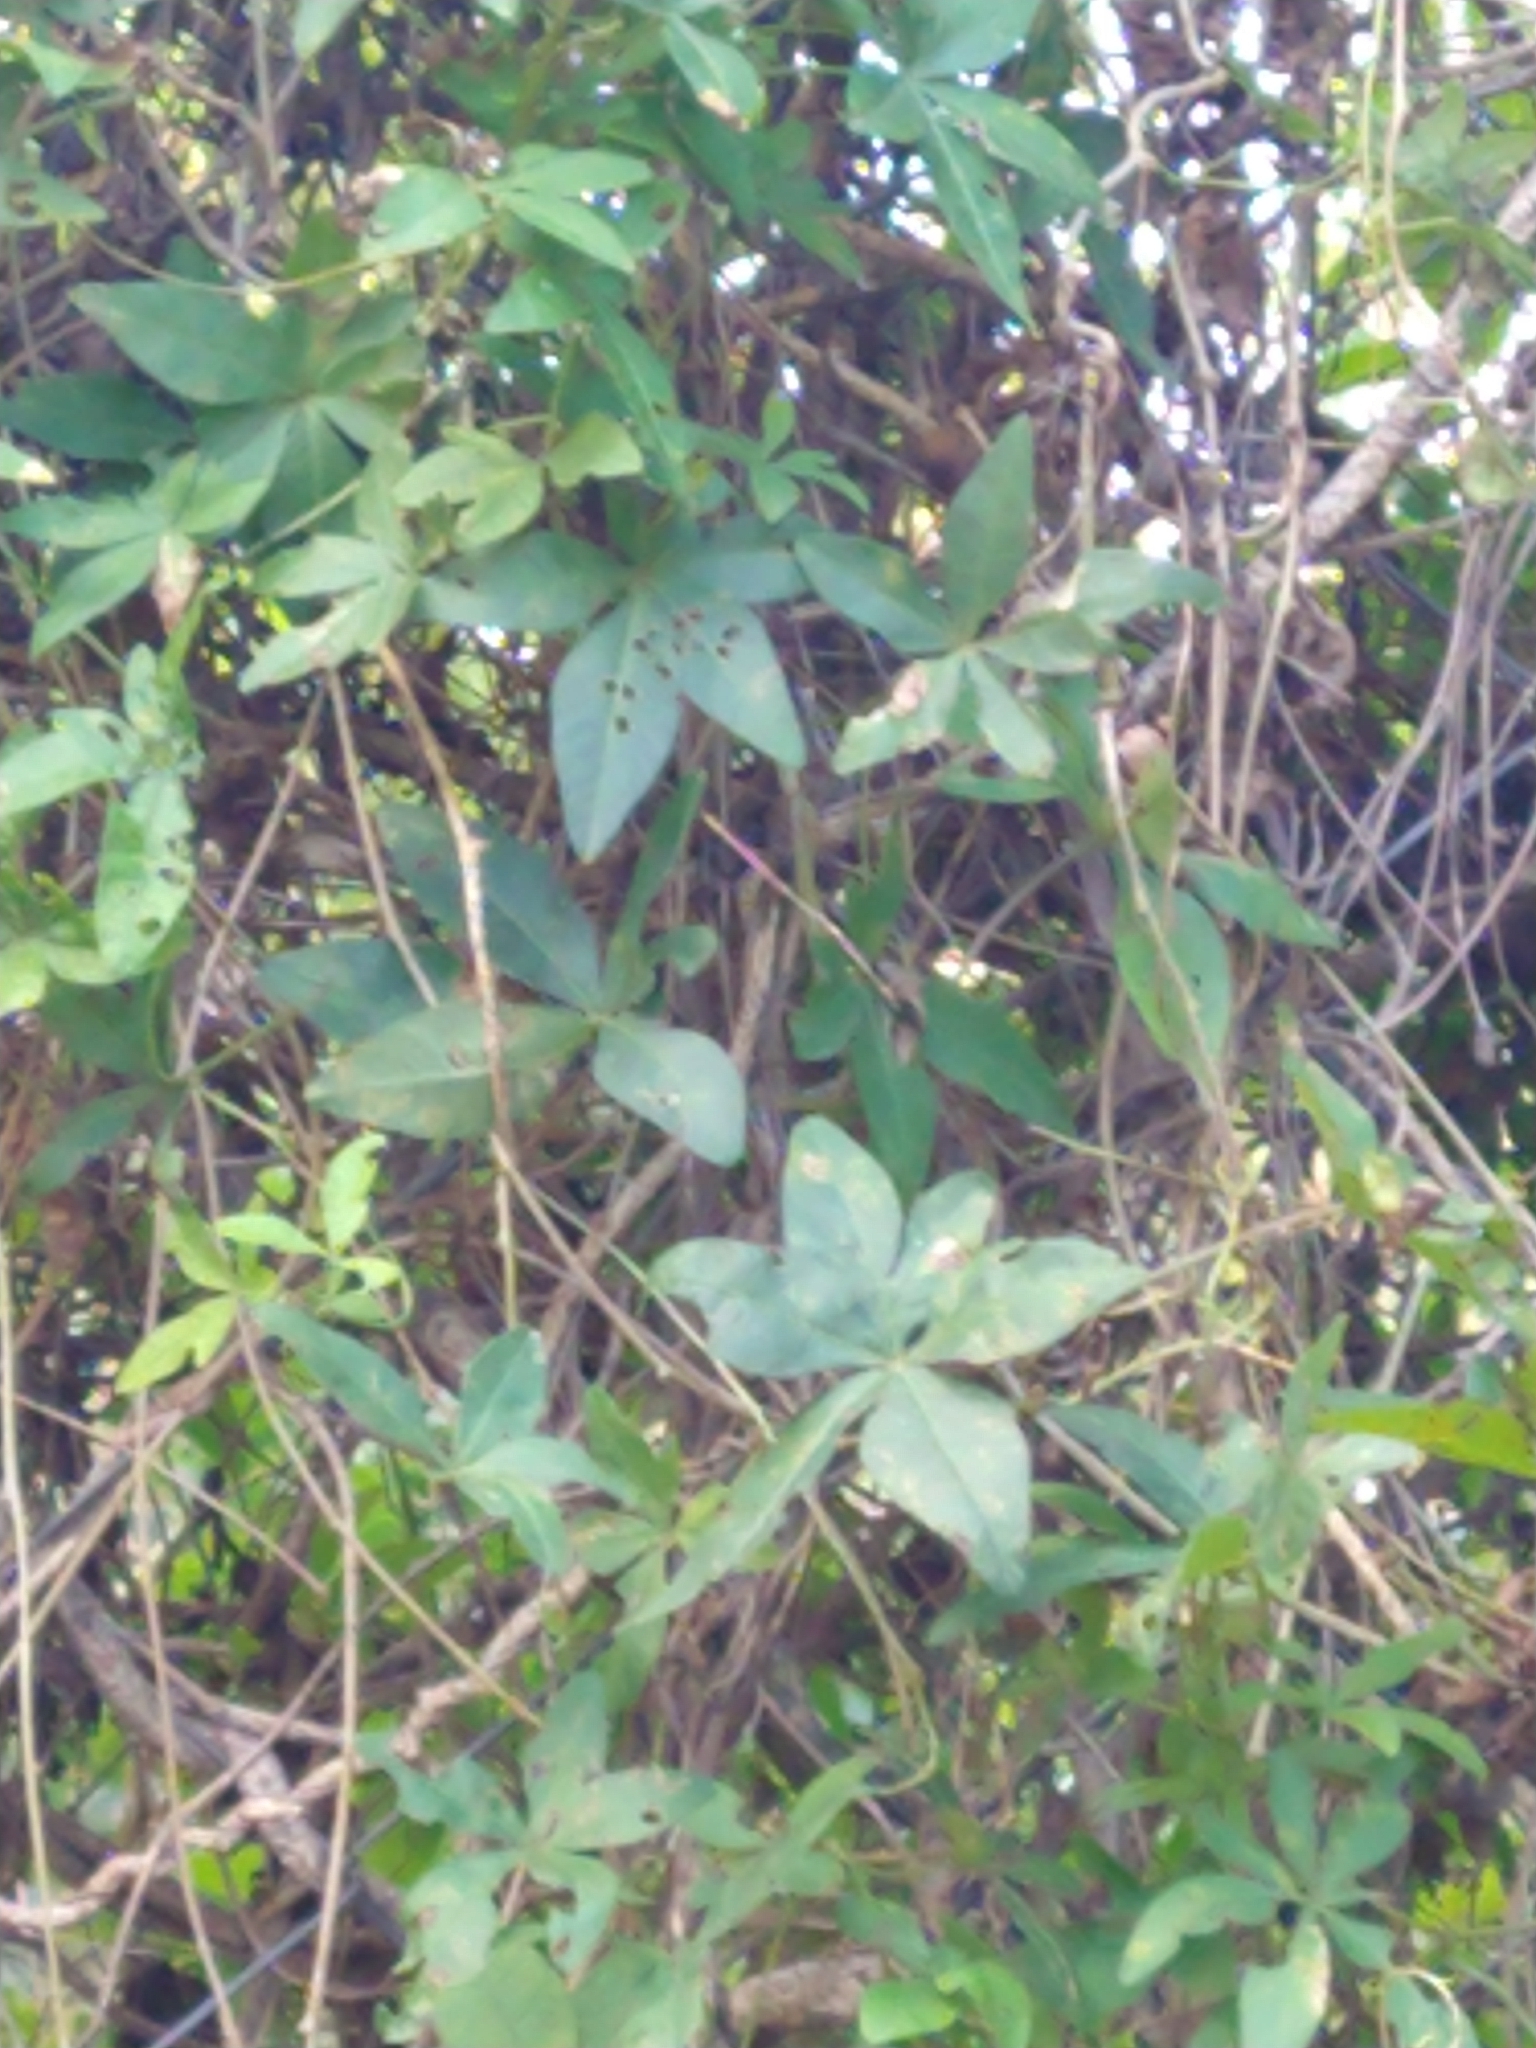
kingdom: Plantae
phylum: Tracheophyta
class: Magnoliopsida
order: Solanales
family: Convolvulaceae
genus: Ipomoea
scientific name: Ipomoea cairica
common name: Mile a minute vine
